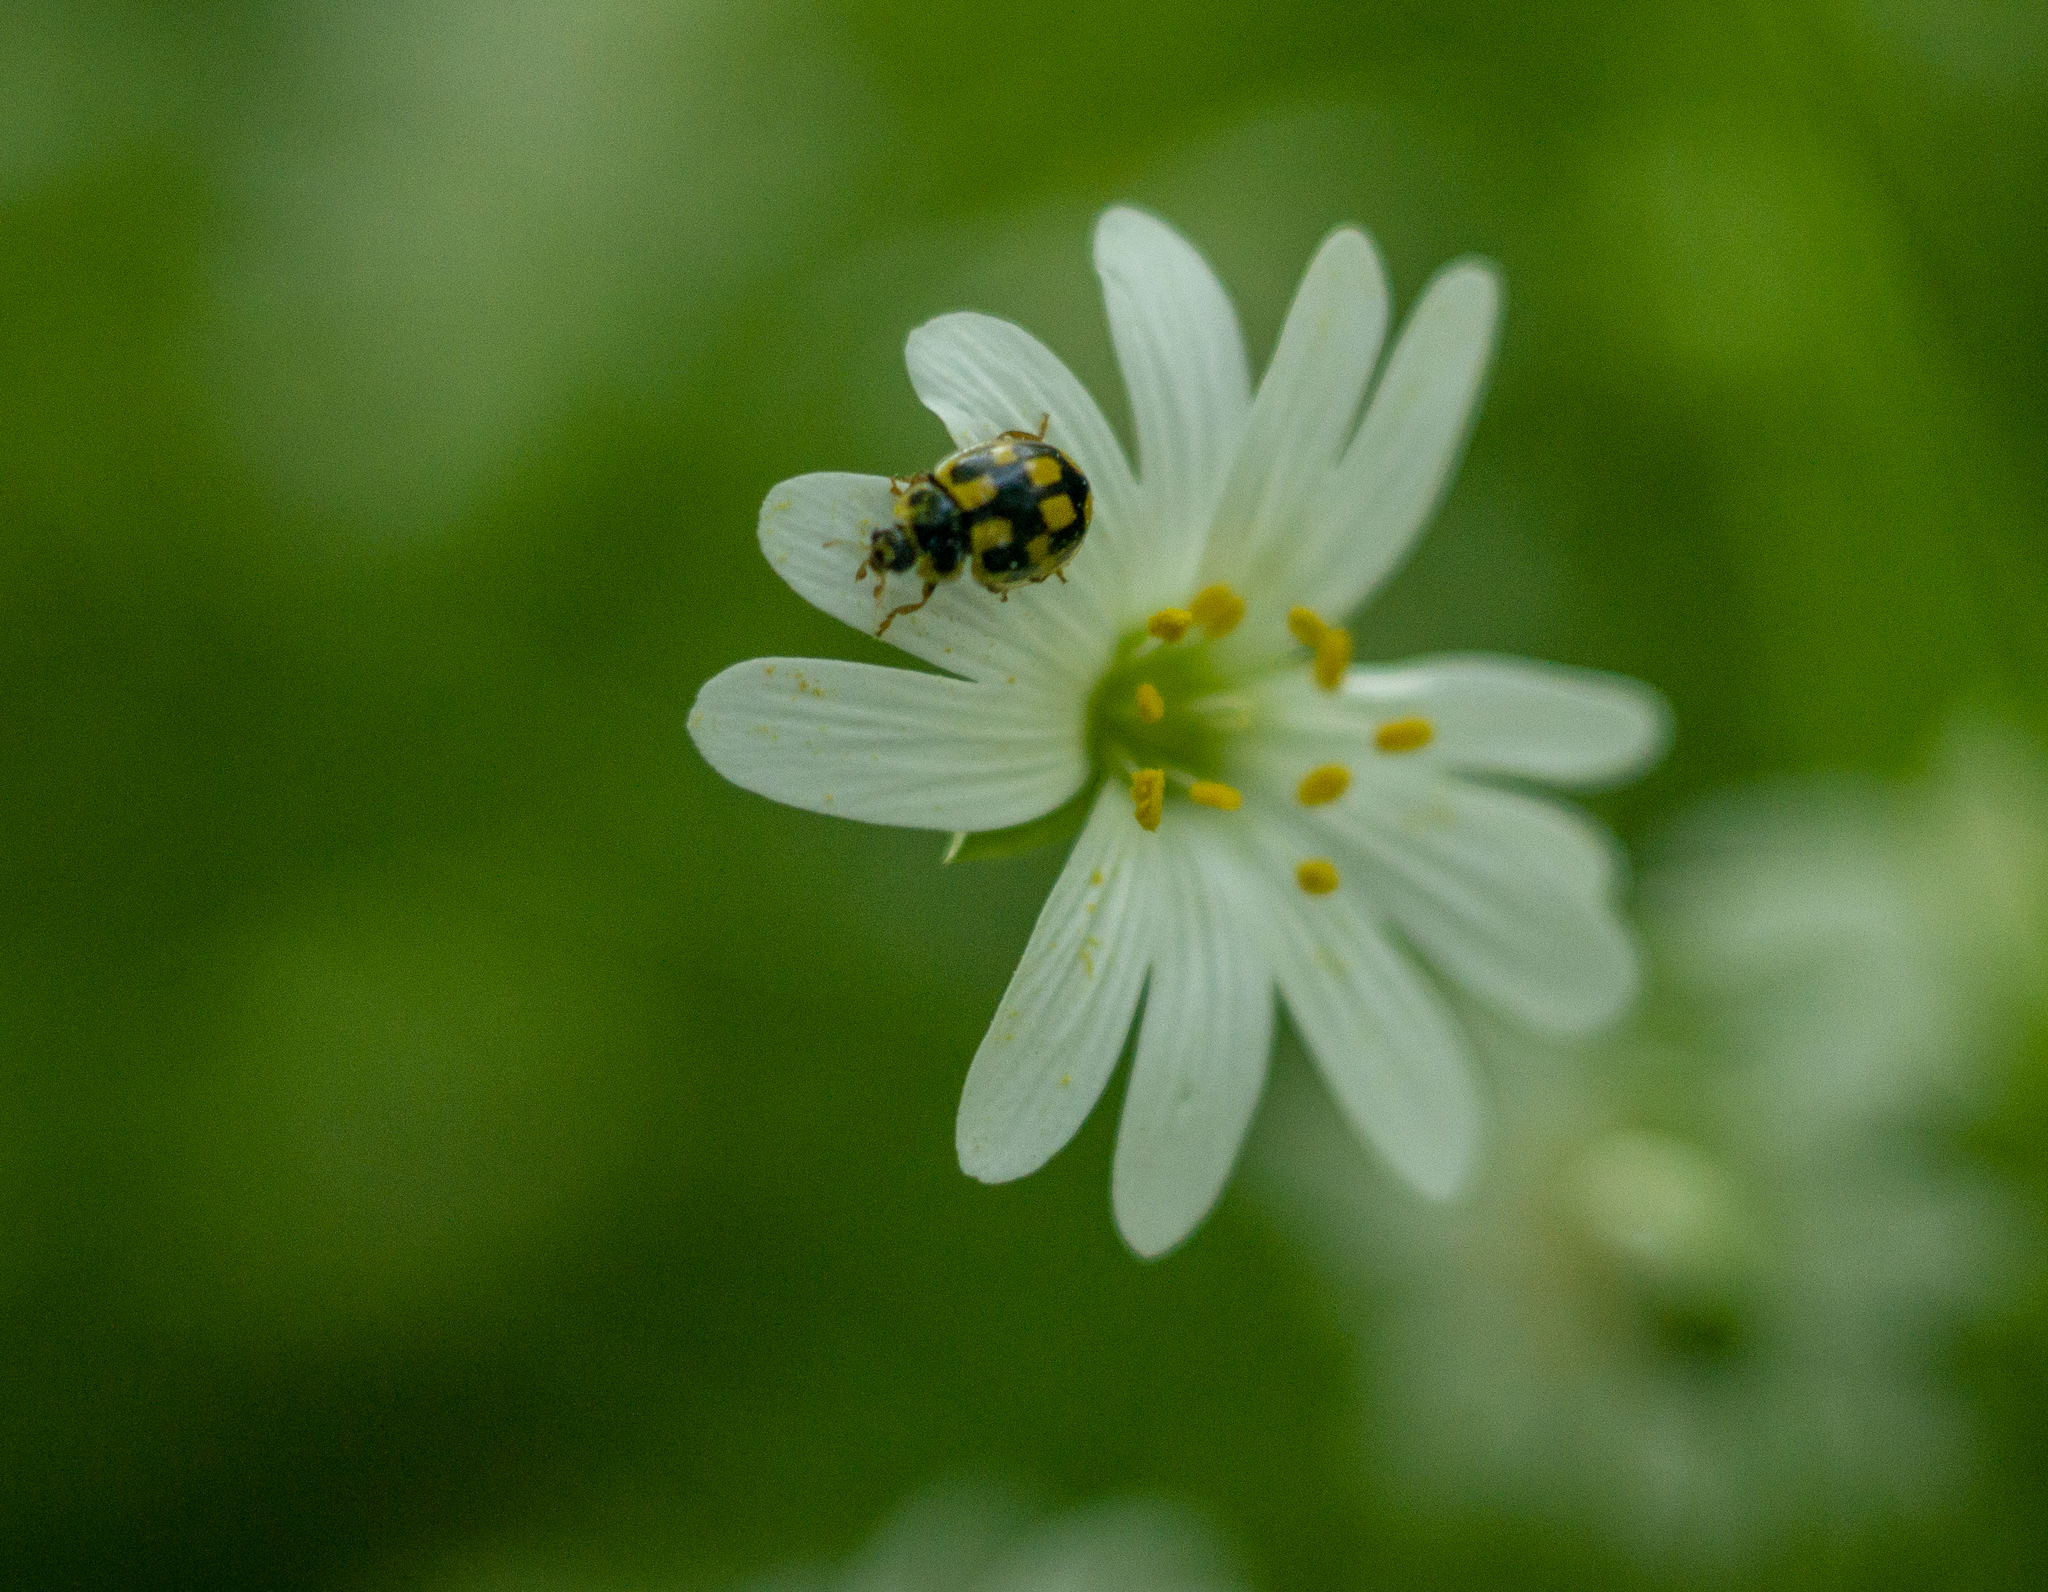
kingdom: Animalia
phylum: Arthropoda
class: Insecta
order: Coleoptera
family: Coccinellidae
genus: Propylaea
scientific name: Propylaea quatuordecimpunctata
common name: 14-spotted ladybird beetle
